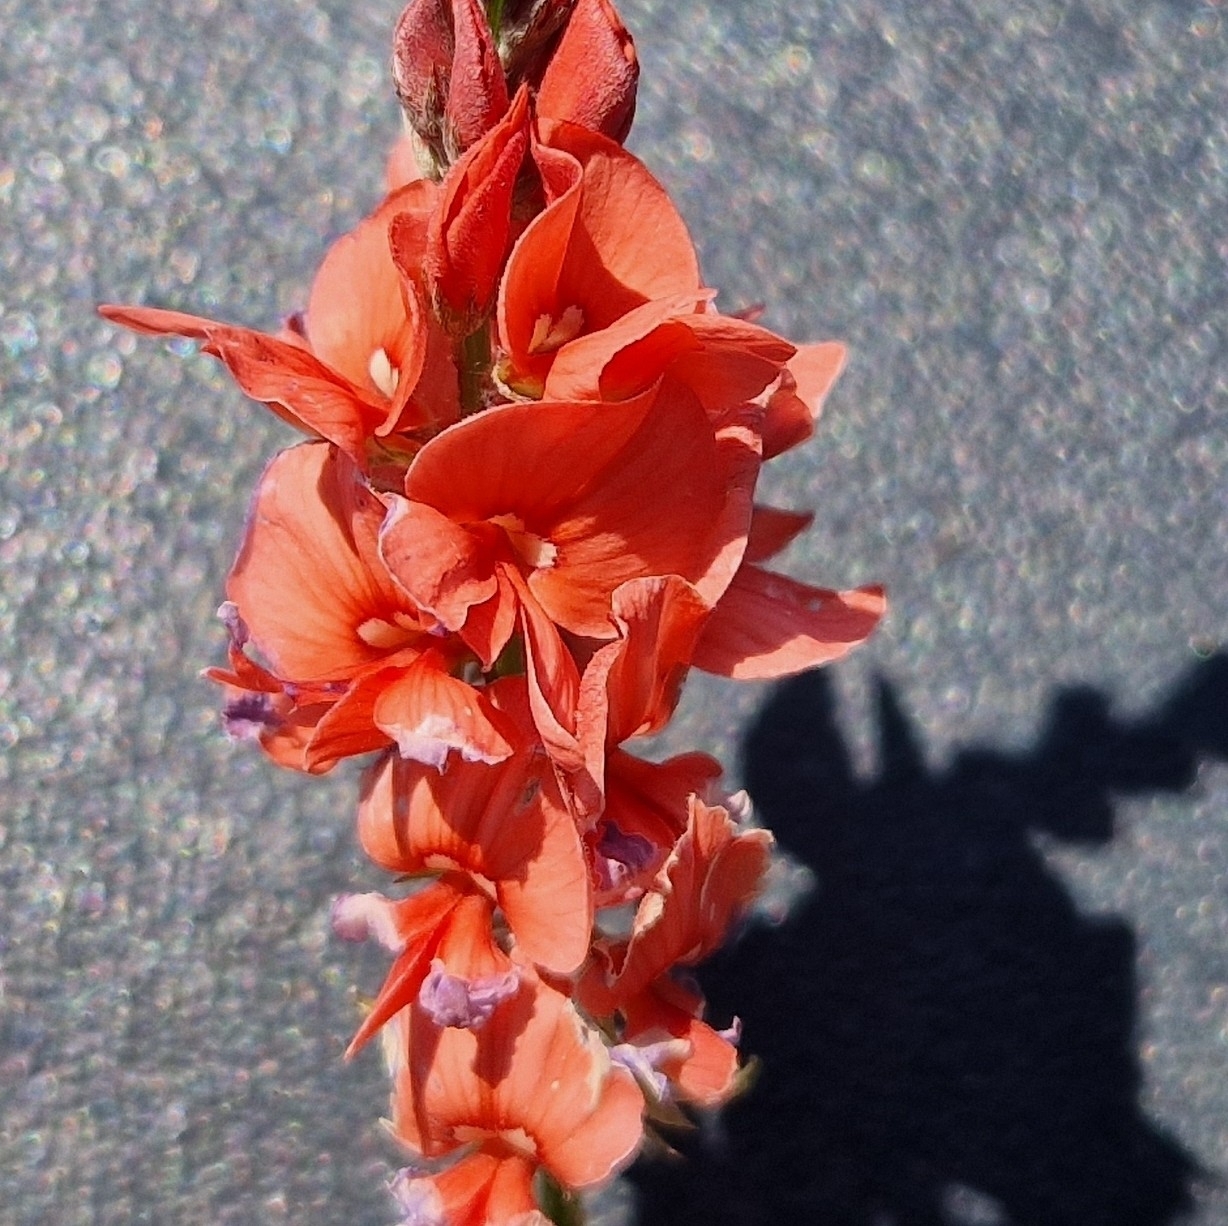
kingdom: Plantae
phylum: Tracheophyta
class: Magnoliopsida
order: Fabales
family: Fabaceae
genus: Indigofera
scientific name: Indigofera bongardiana
